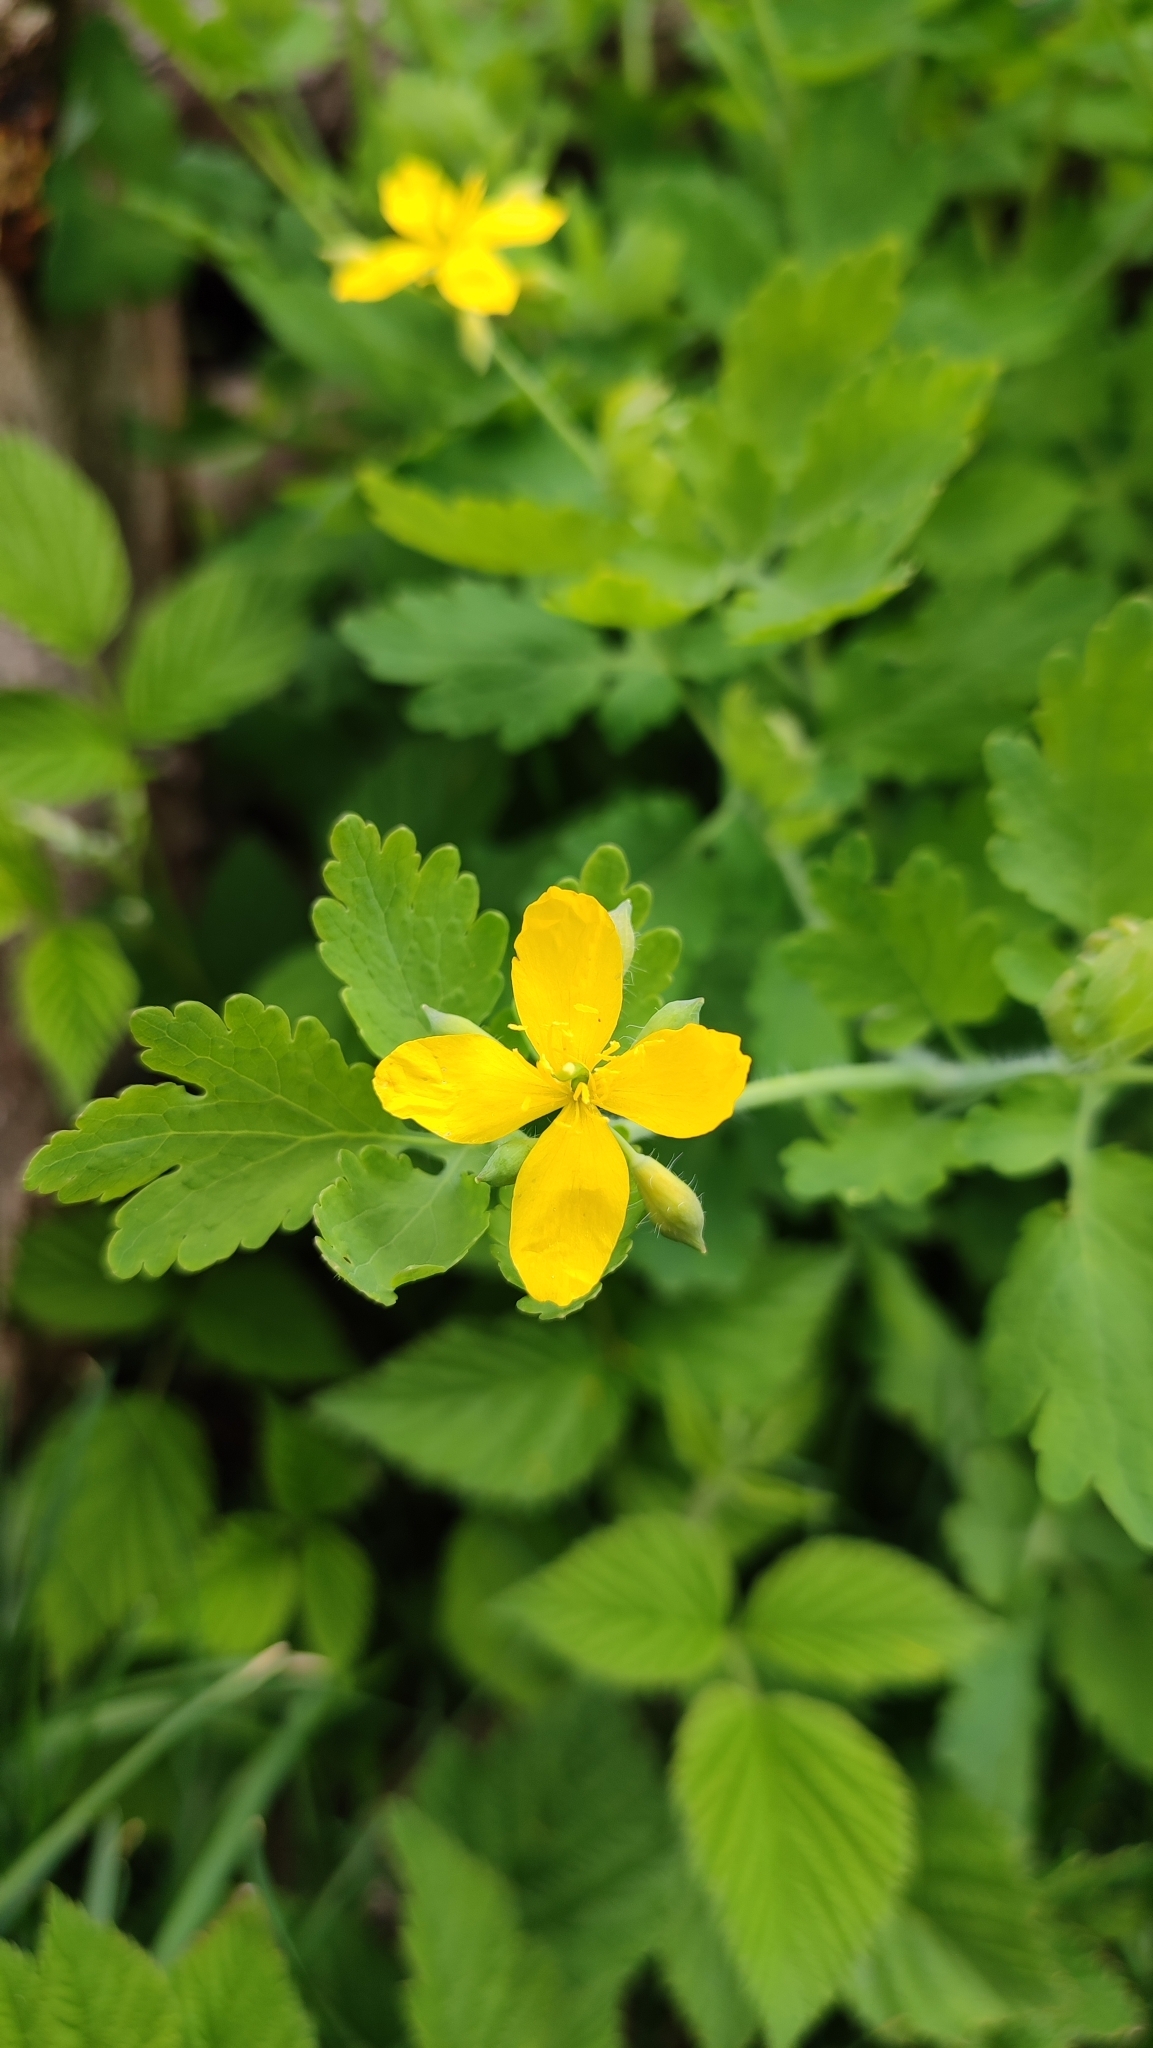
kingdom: Plantae
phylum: Tracheophyta
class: Magnoliopsida
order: Ranunculales
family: Papaveraceae
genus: Chelidonium
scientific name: Chelidonium majus
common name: Greater celandine
